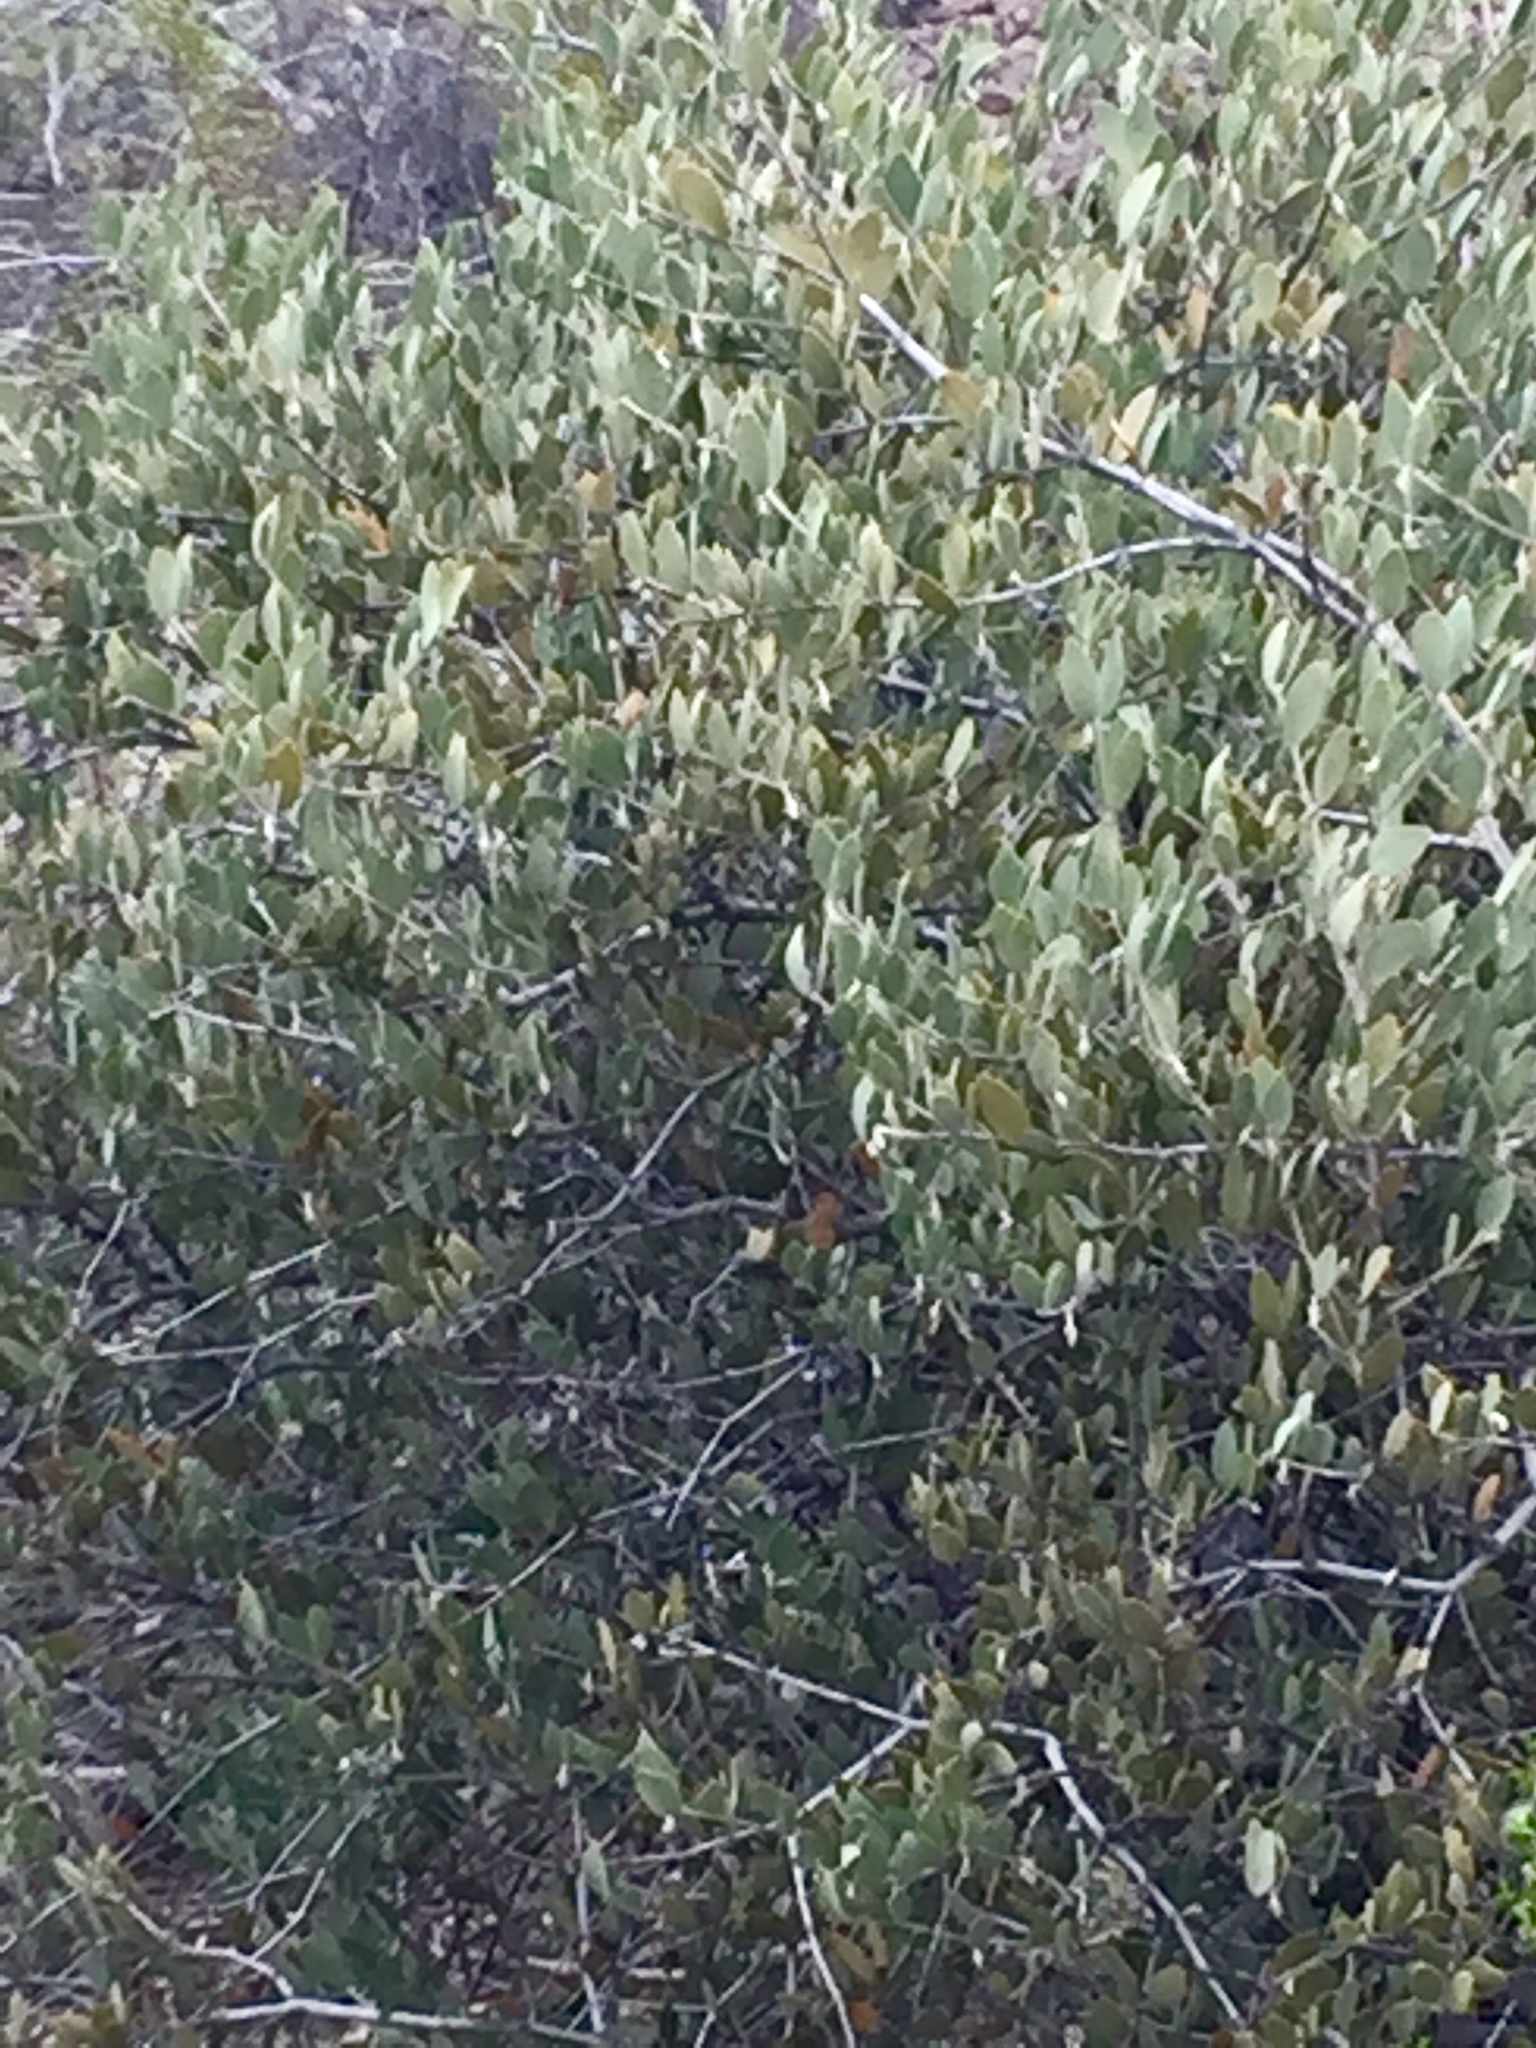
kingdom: Plantae
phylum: Tracheophyta
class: Magnoliopsida
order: Caryophyllales
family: Simmondsiaceae
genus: Simmondsia
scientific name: Simmondsia chinensis
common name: Jojoba
